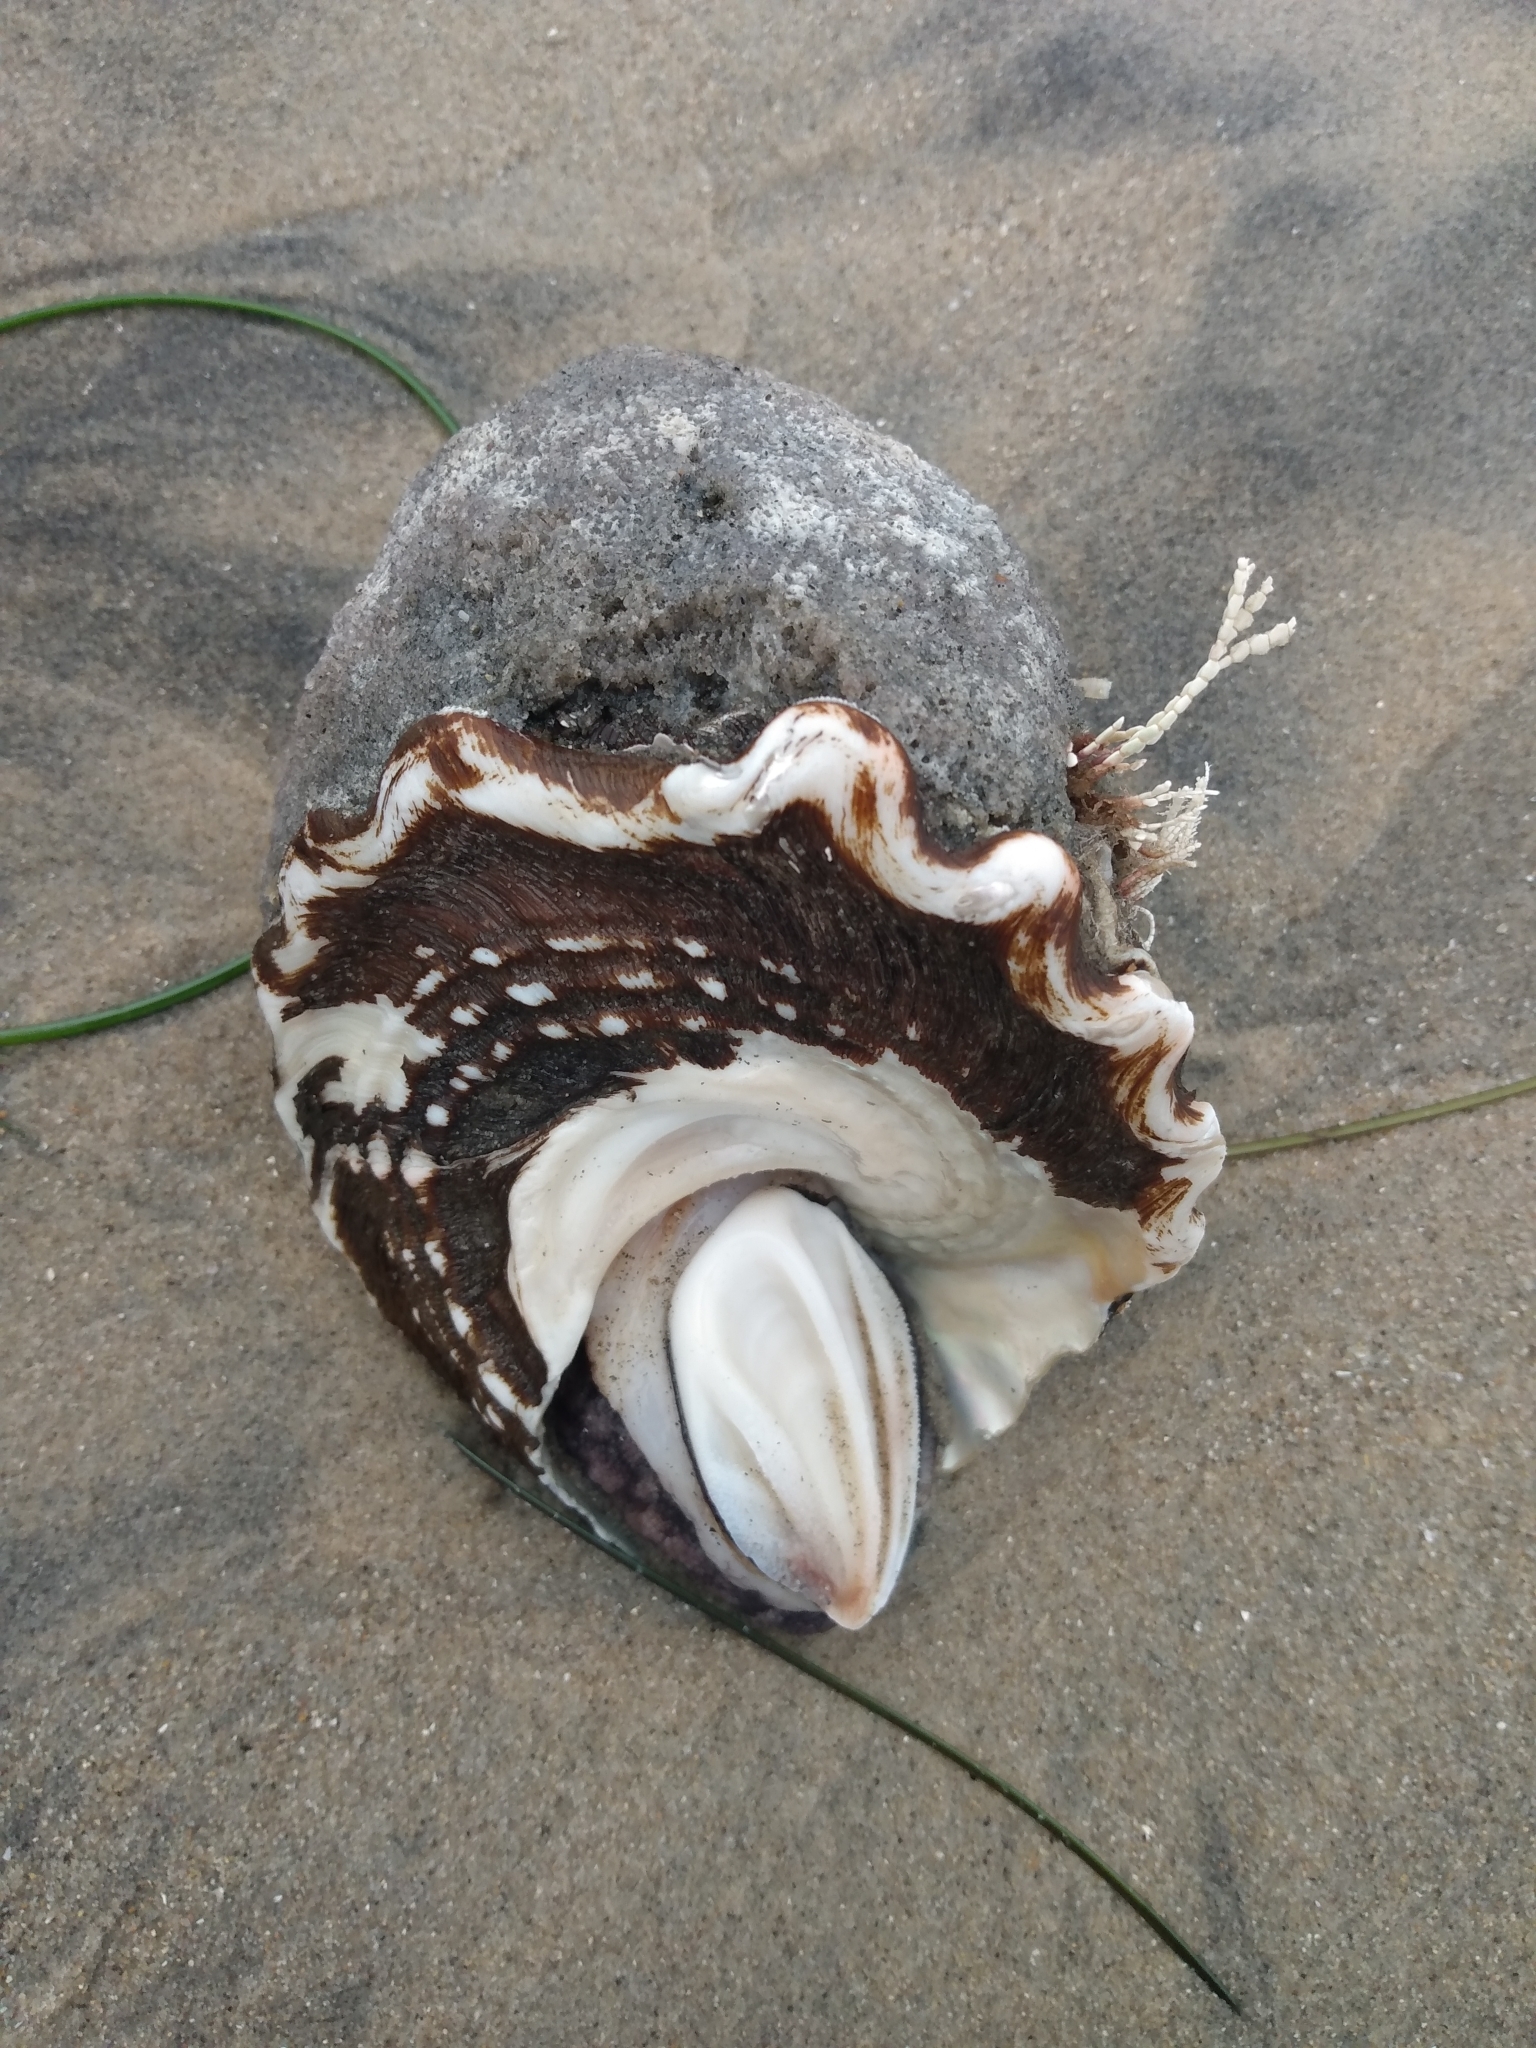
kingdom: Animalia
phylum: Mollusca
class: Gastropoda
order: Trochida
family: Turbinidae
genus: Megastraea
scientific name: Megastraea undosa
